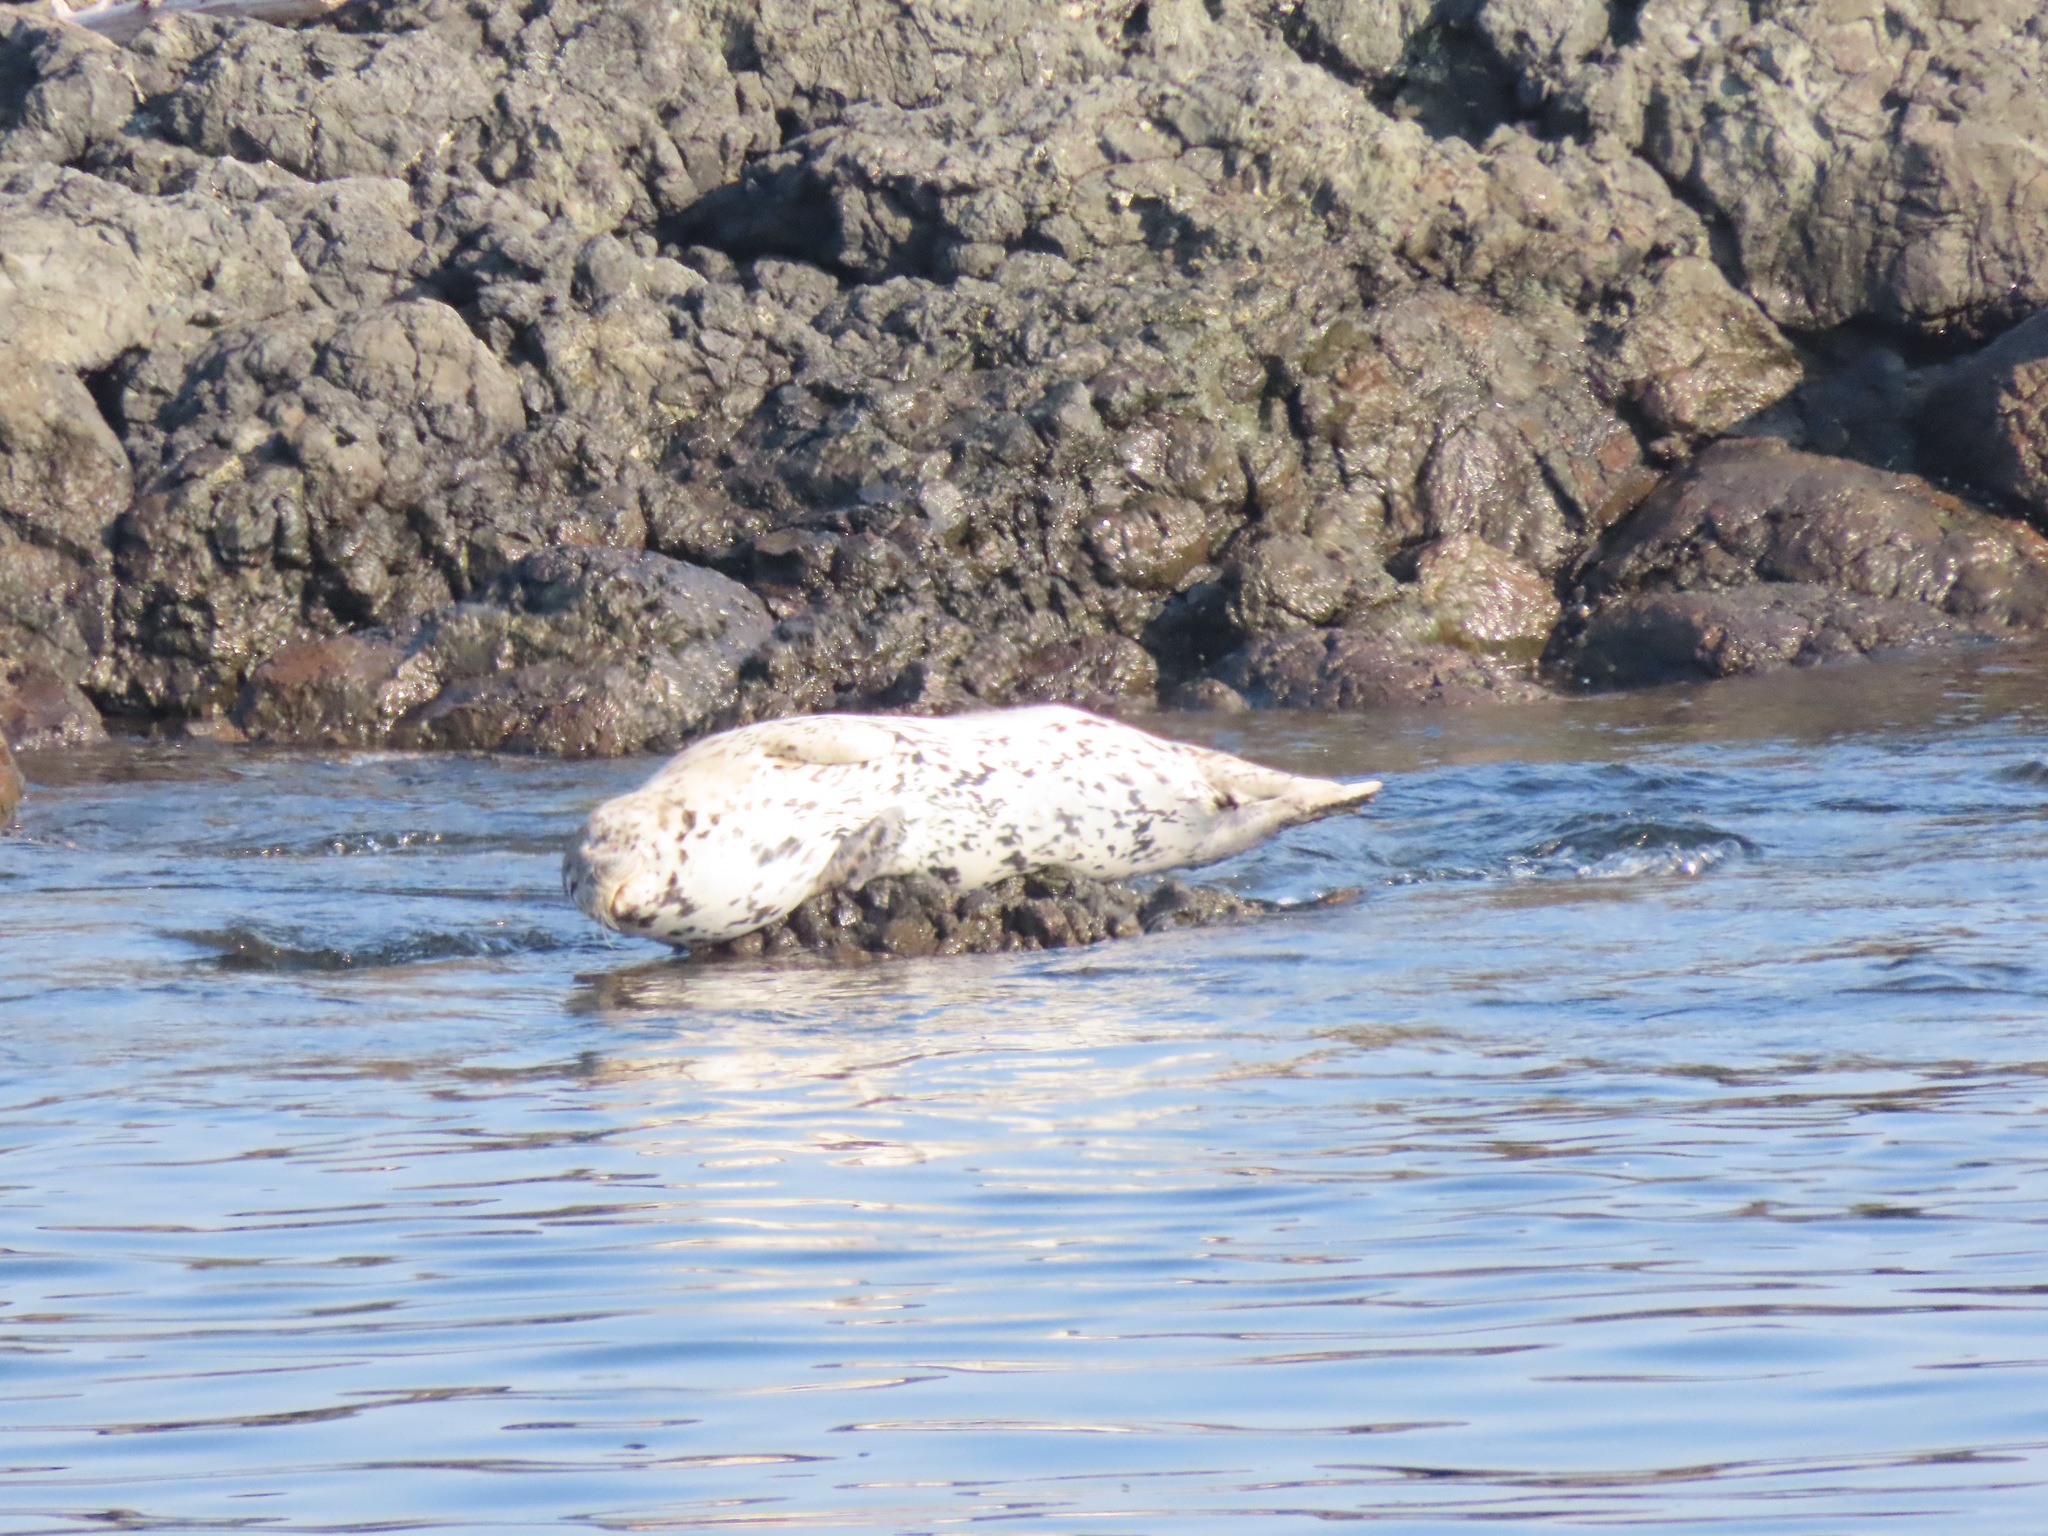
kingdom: Animalia
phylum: Chordata
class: Mammalia
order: Carnivora
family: Phocidae
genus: Phoca
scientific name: Phoca vitulina
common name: Harbor seal
